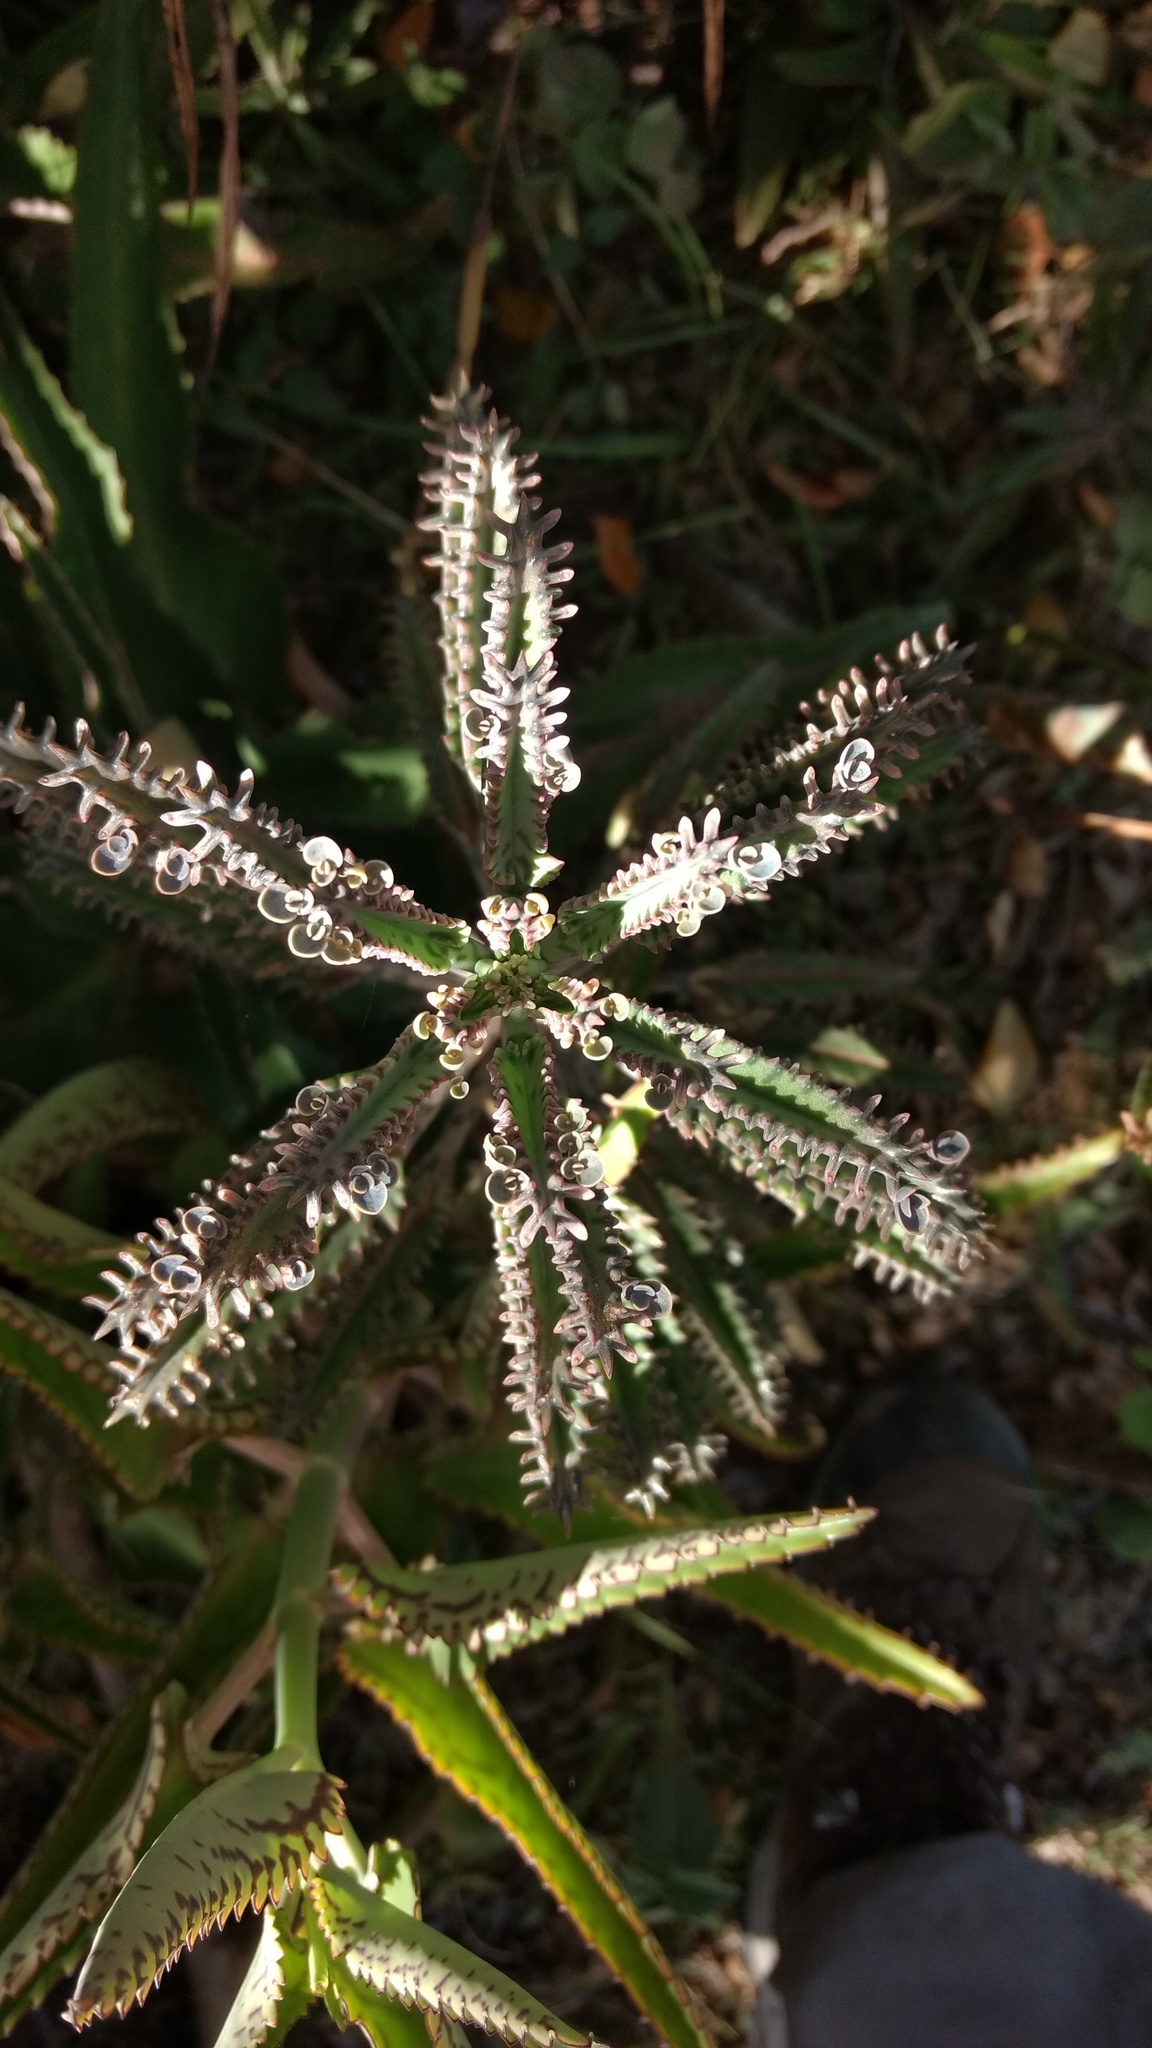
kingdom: Plantae
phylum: Tracheophyta
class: Magnoliopsida
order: Saxifragales
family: Crassulaceae
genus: Kalanchoe
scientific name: Kalanchoe houghtonii
